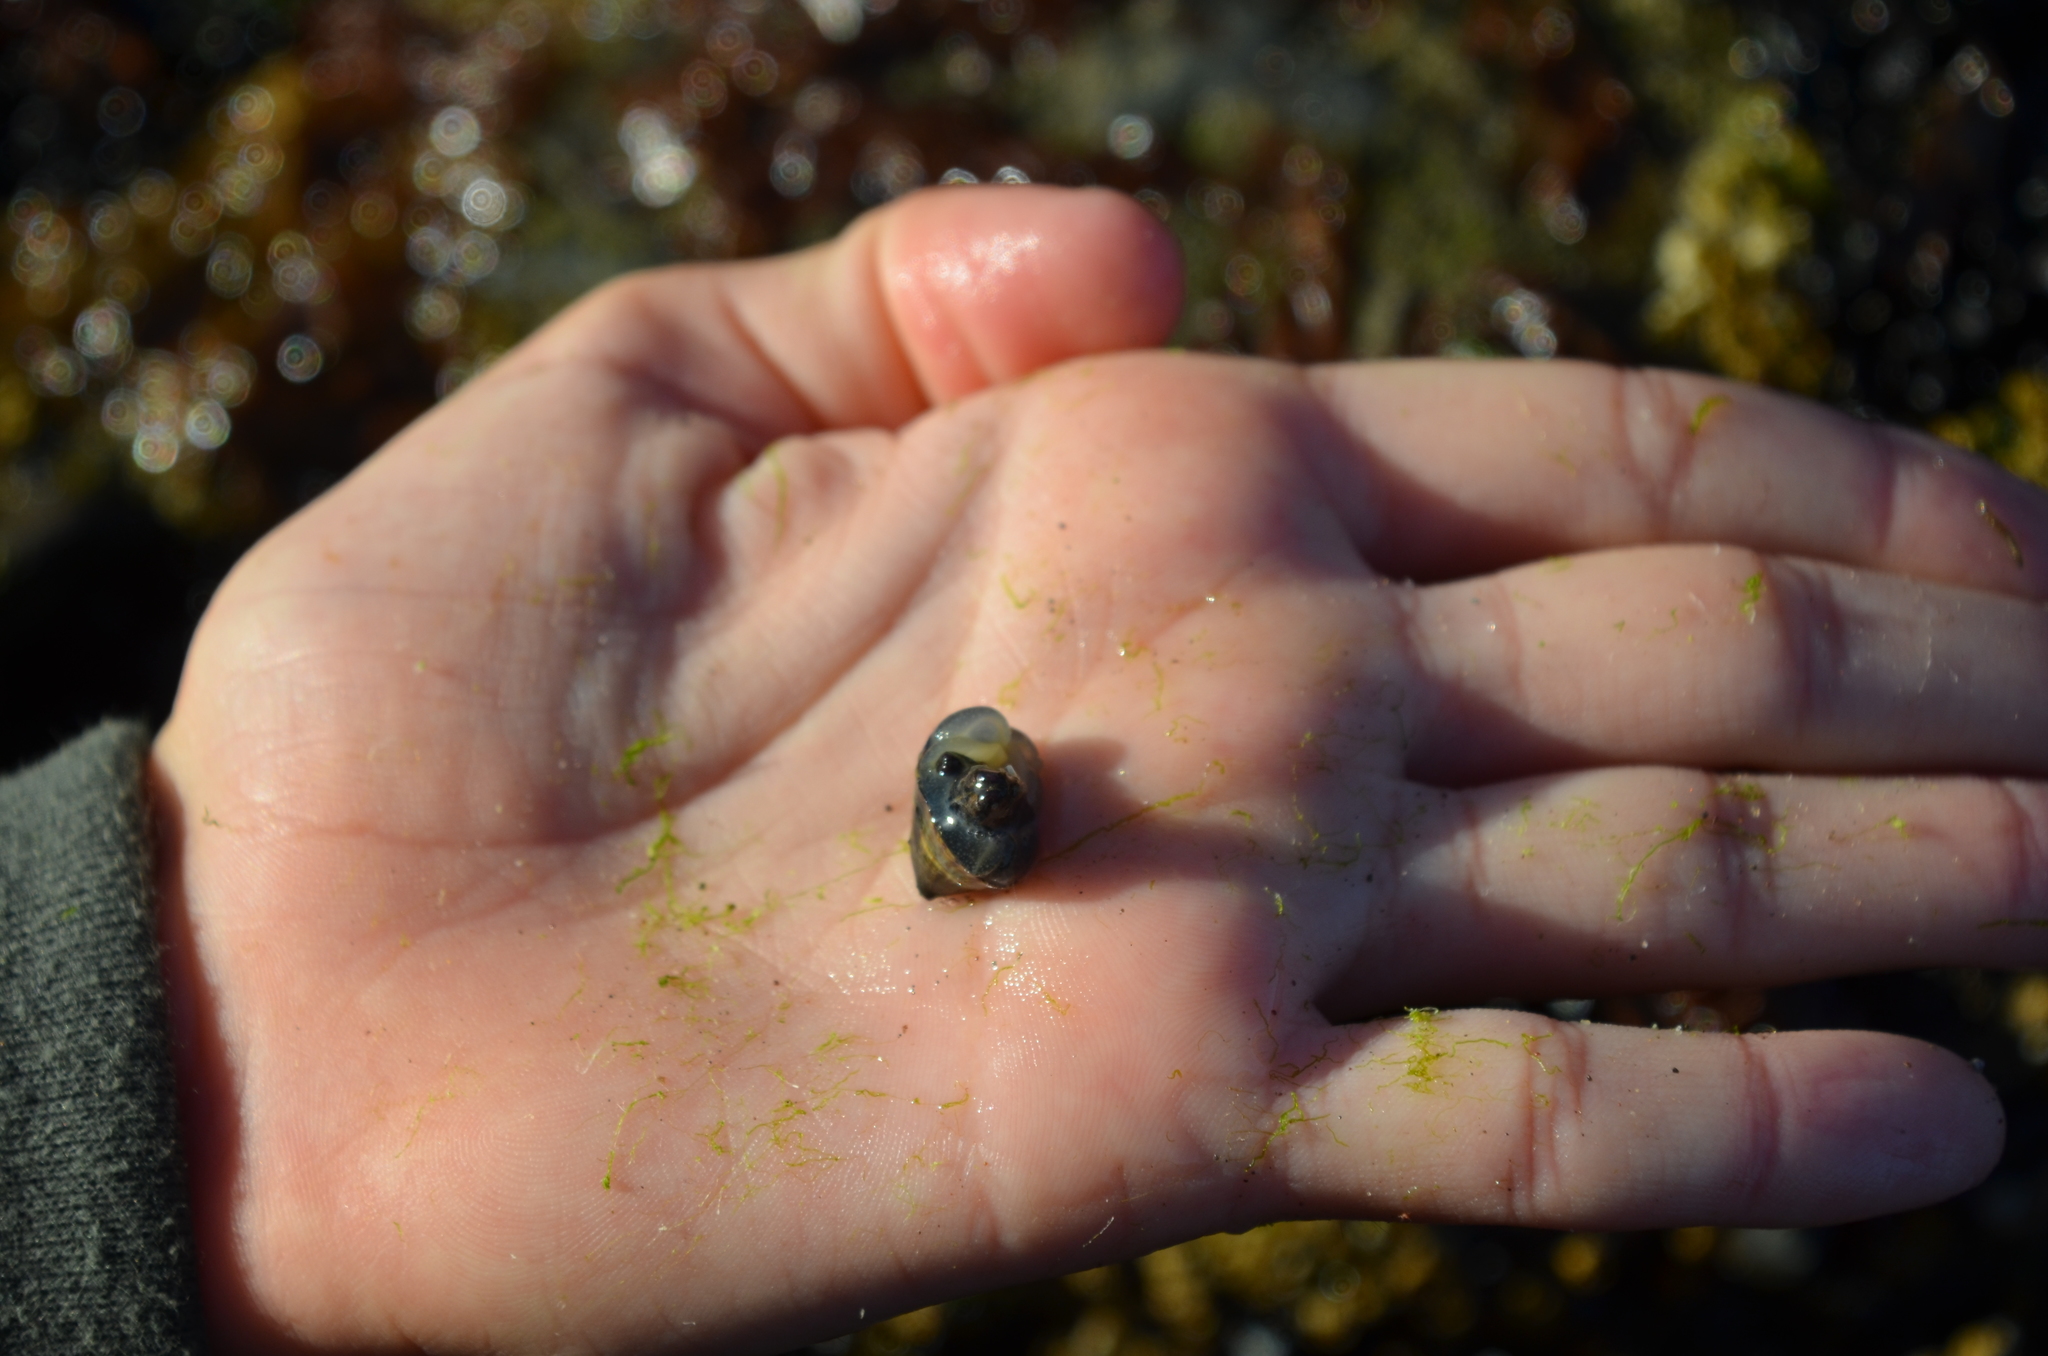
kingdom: Animalia
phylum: Mollusca
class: Gastropoda
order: Siphonariida
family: Siphonariidae
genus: Siphonaria
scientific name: Siphonaria lessonii
